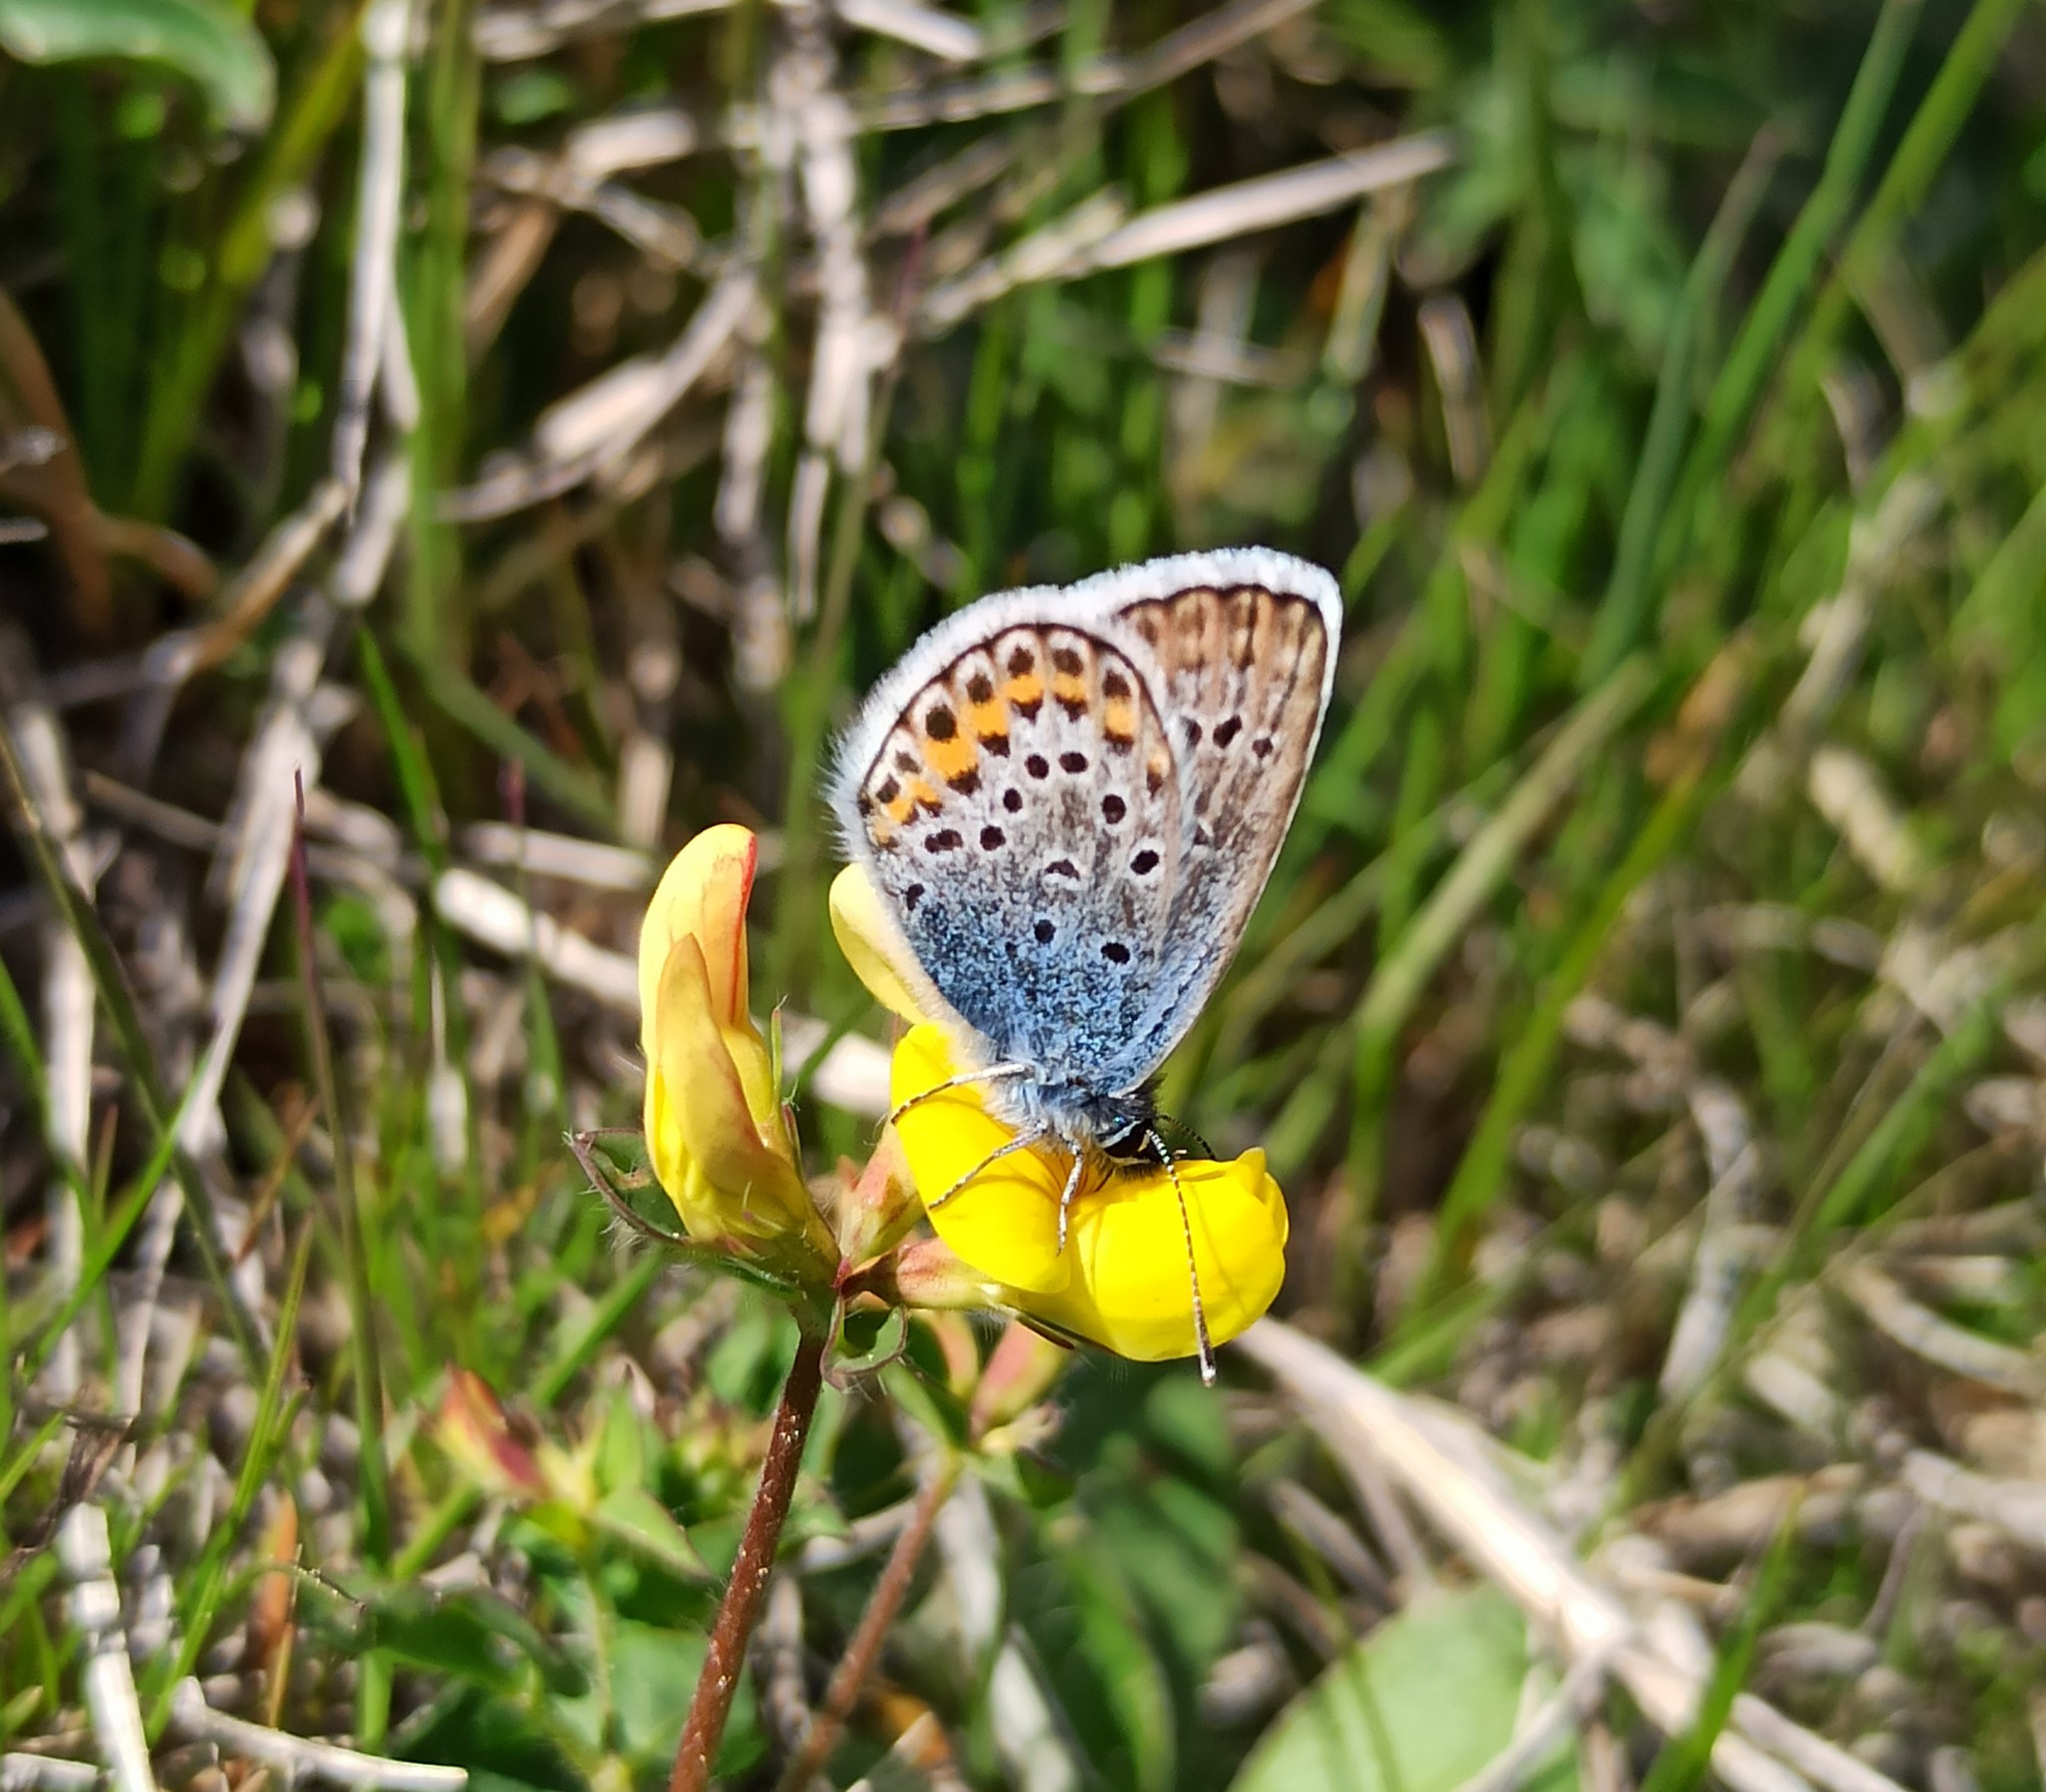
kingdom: Animalia
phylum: Arthropoda
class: Insecta
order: Lepidoptera
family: Lycaenidae
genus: Plebejus
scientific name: Plebejus argus
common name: Silver-studded blue
